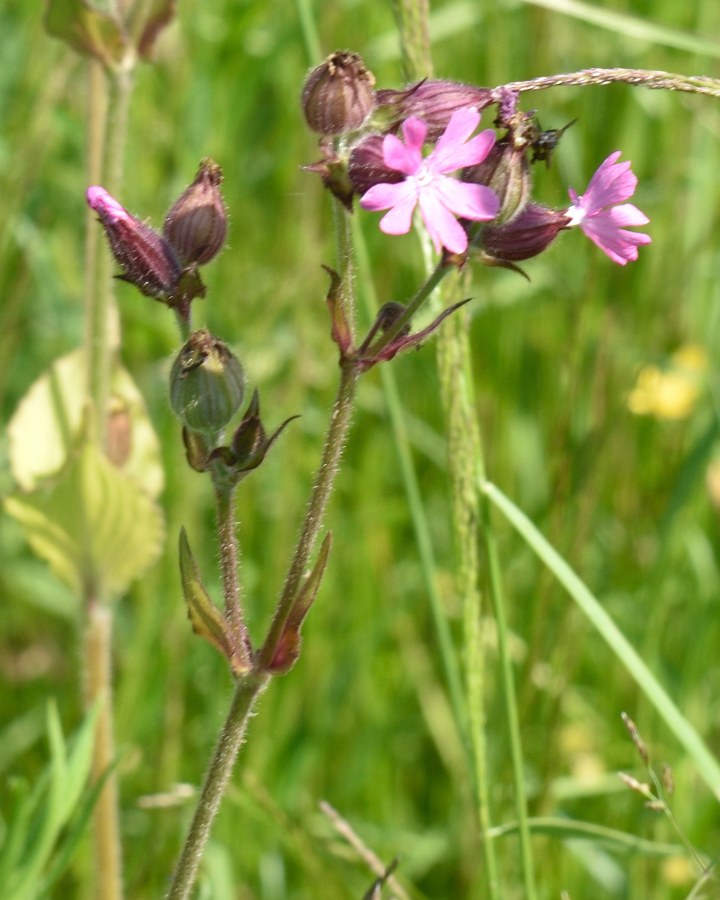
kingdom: Plantae
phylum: Tracheophyta
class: Magnoliopsida
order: Caryophyllales
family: Caryophyllaceae
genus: Silene
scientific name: Silene dioica
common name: Red campion
